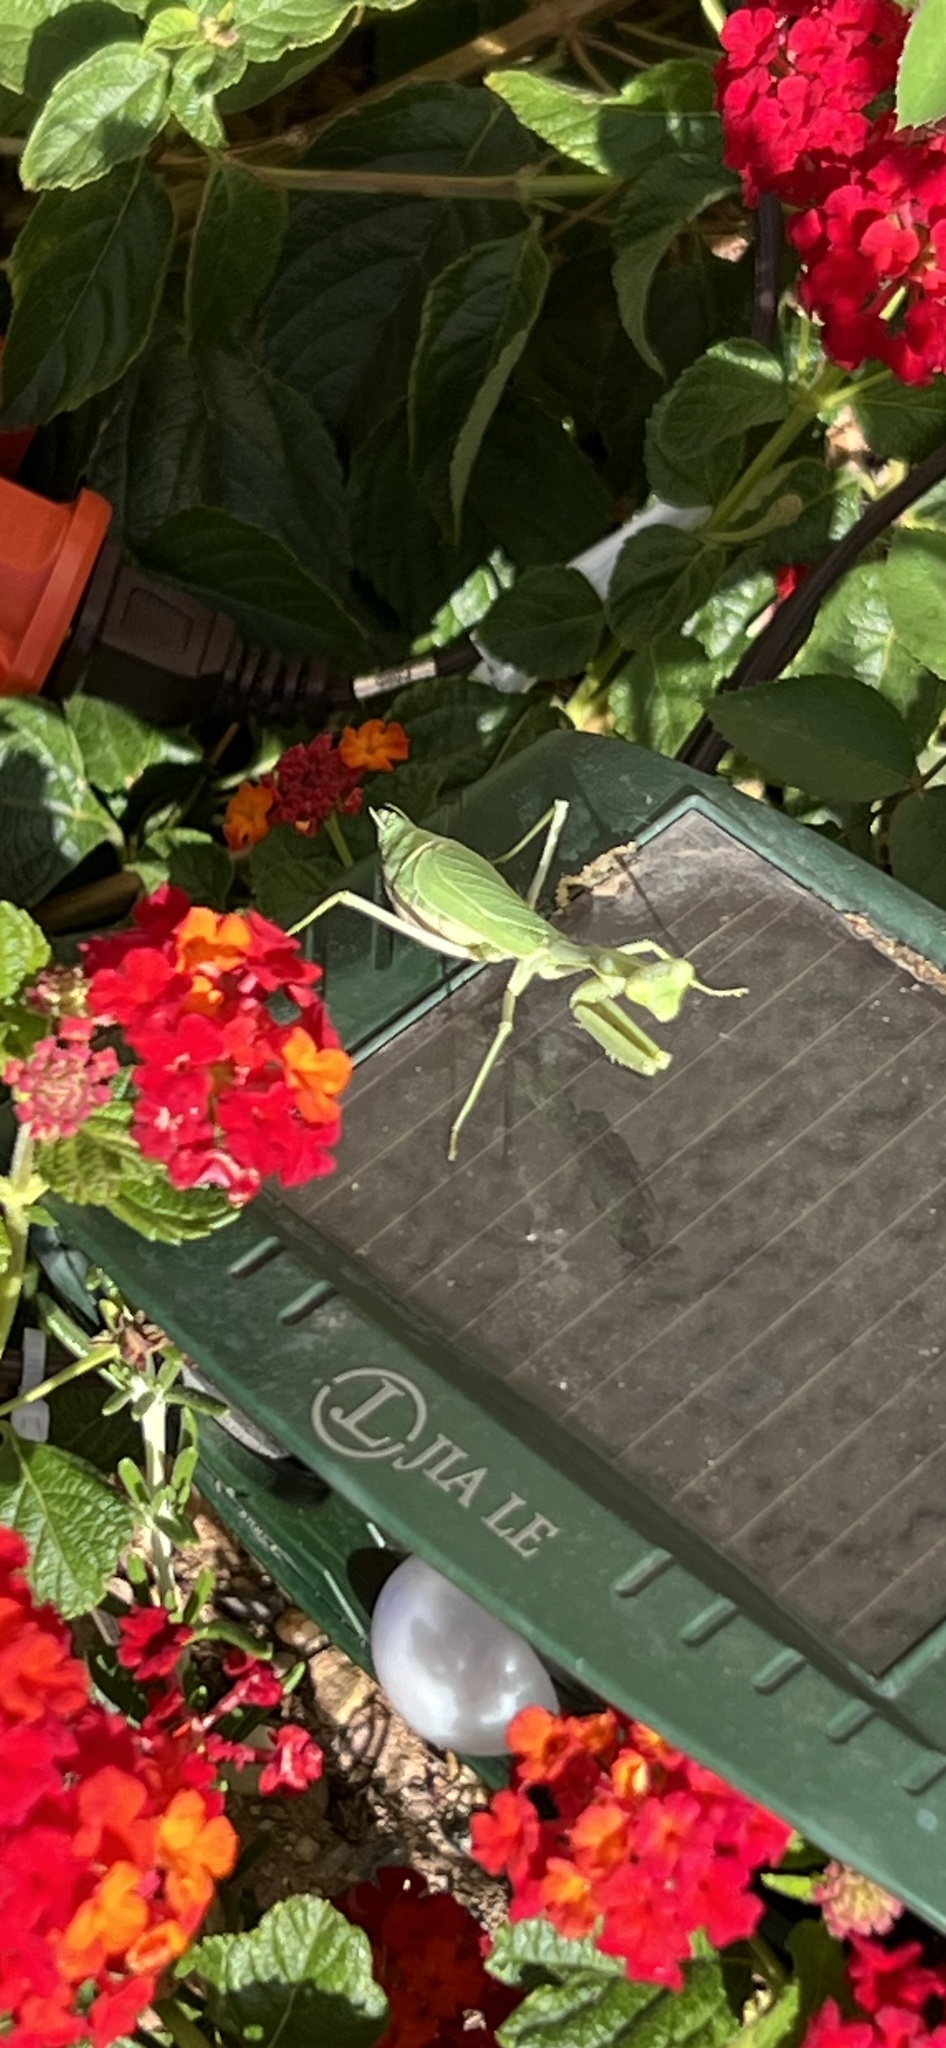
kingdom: Animalia
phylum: Arthropoda
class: Insecta
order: Mantodea
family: Mantidae
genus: Stagmomantis
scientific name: Stagmomantis limbata
